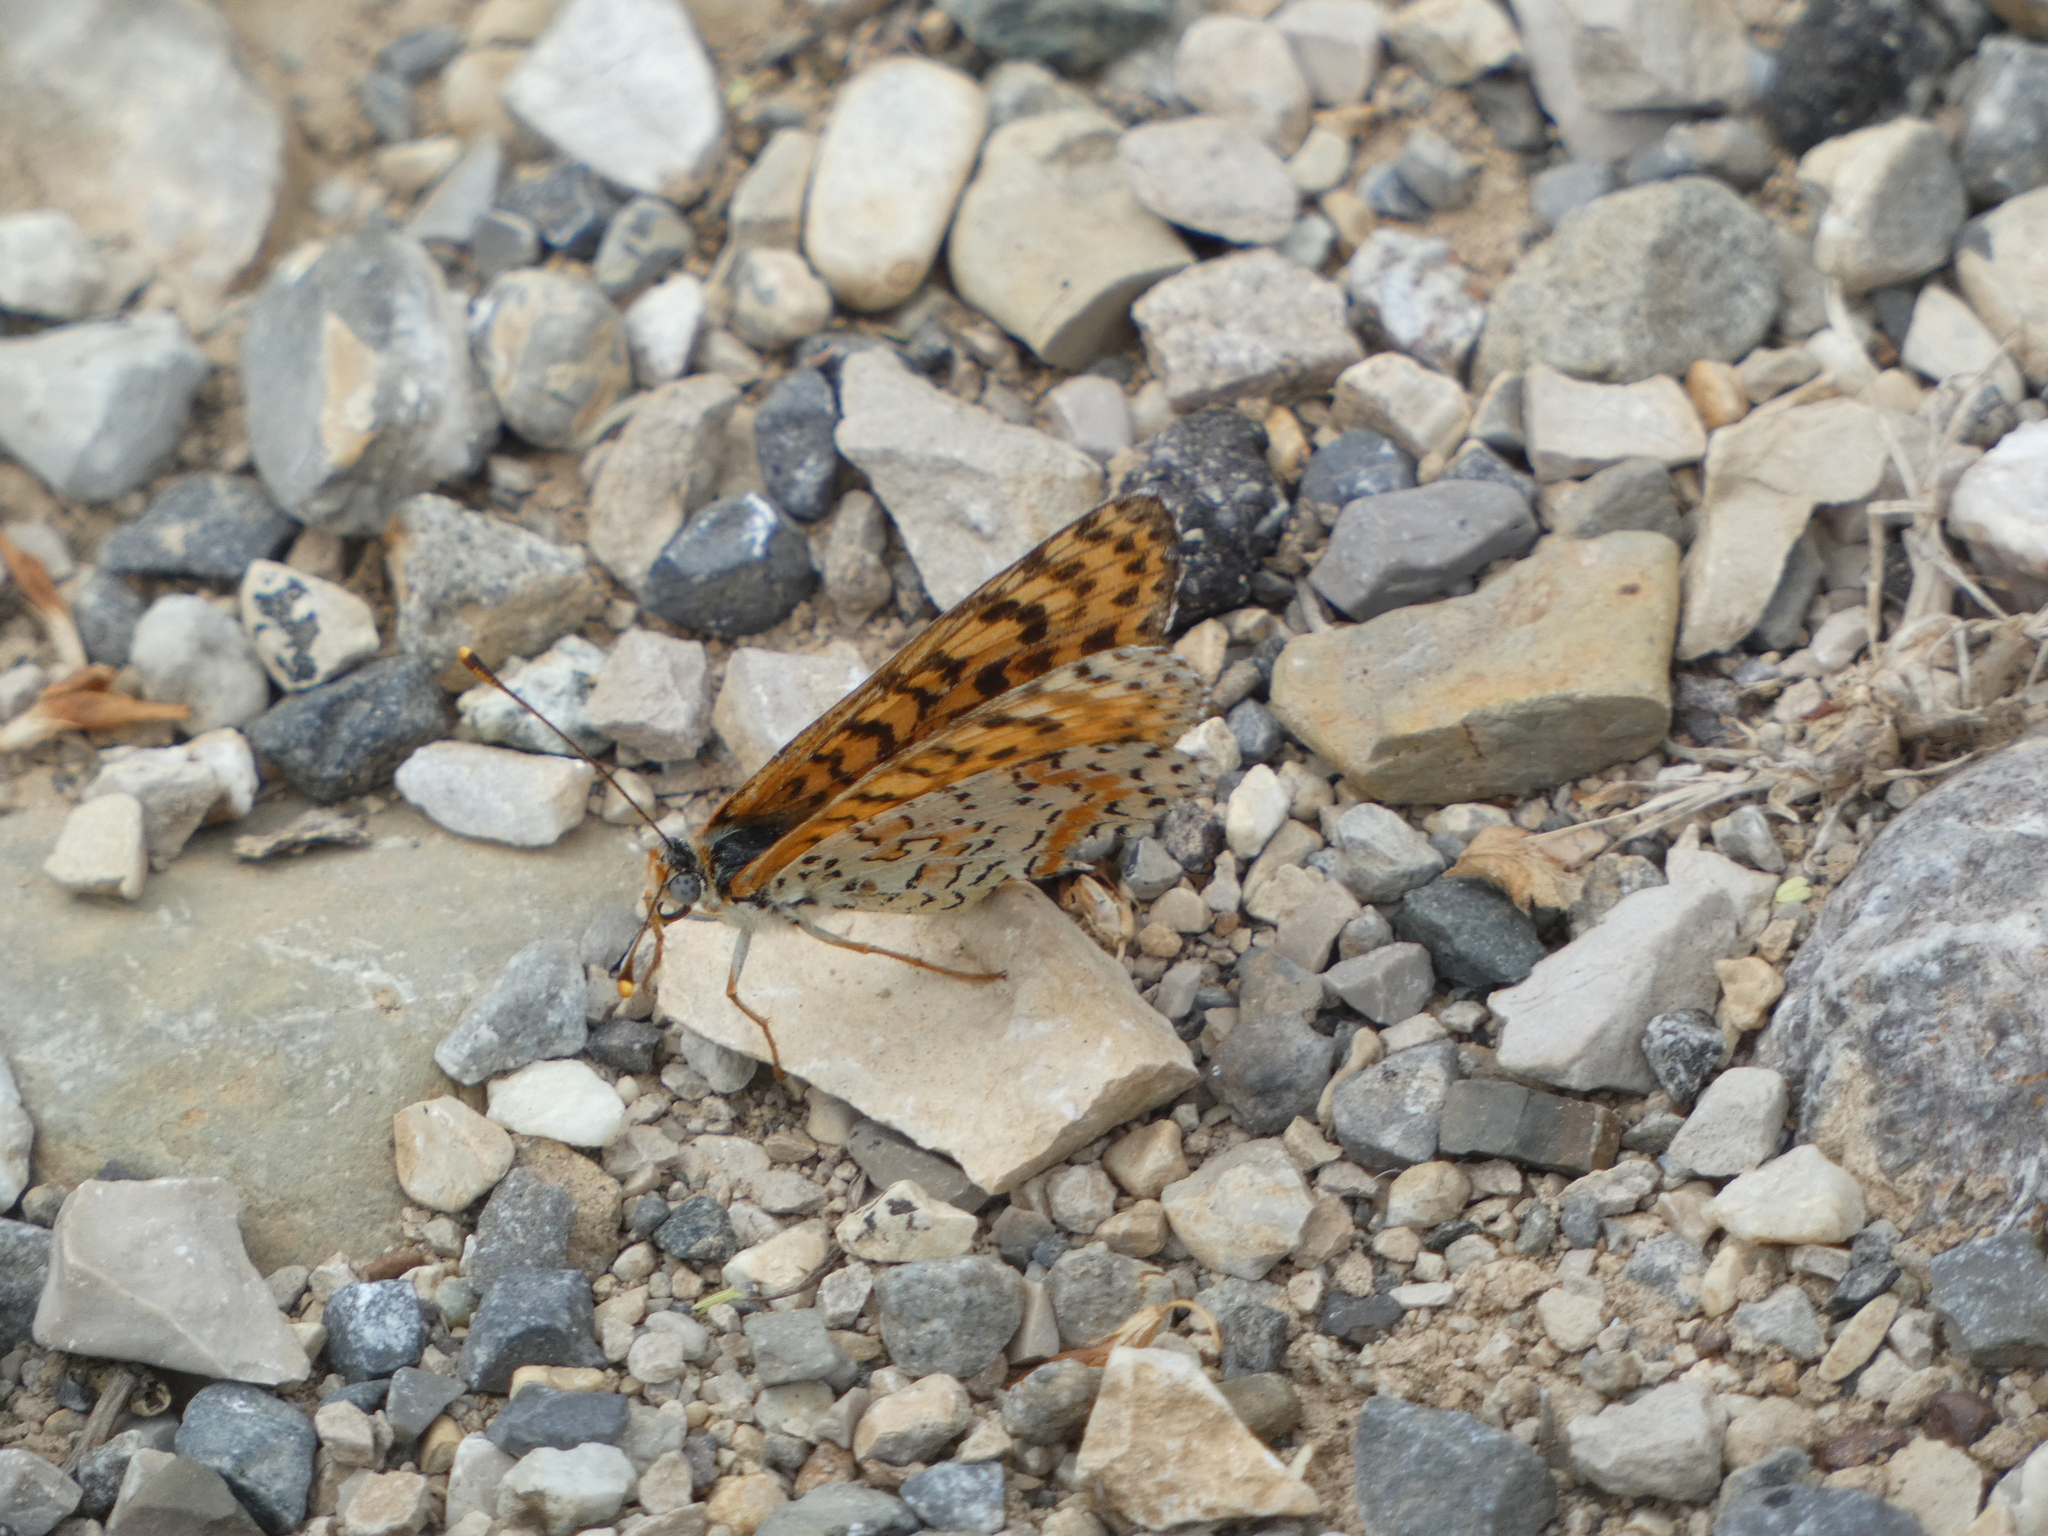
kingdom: Animalia
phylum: Arthropoda
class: Insecta
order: Lepidoptera
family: Nymphalidae
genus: Melitaea
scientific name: Melitaea didyma
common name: Spotted fritillary
